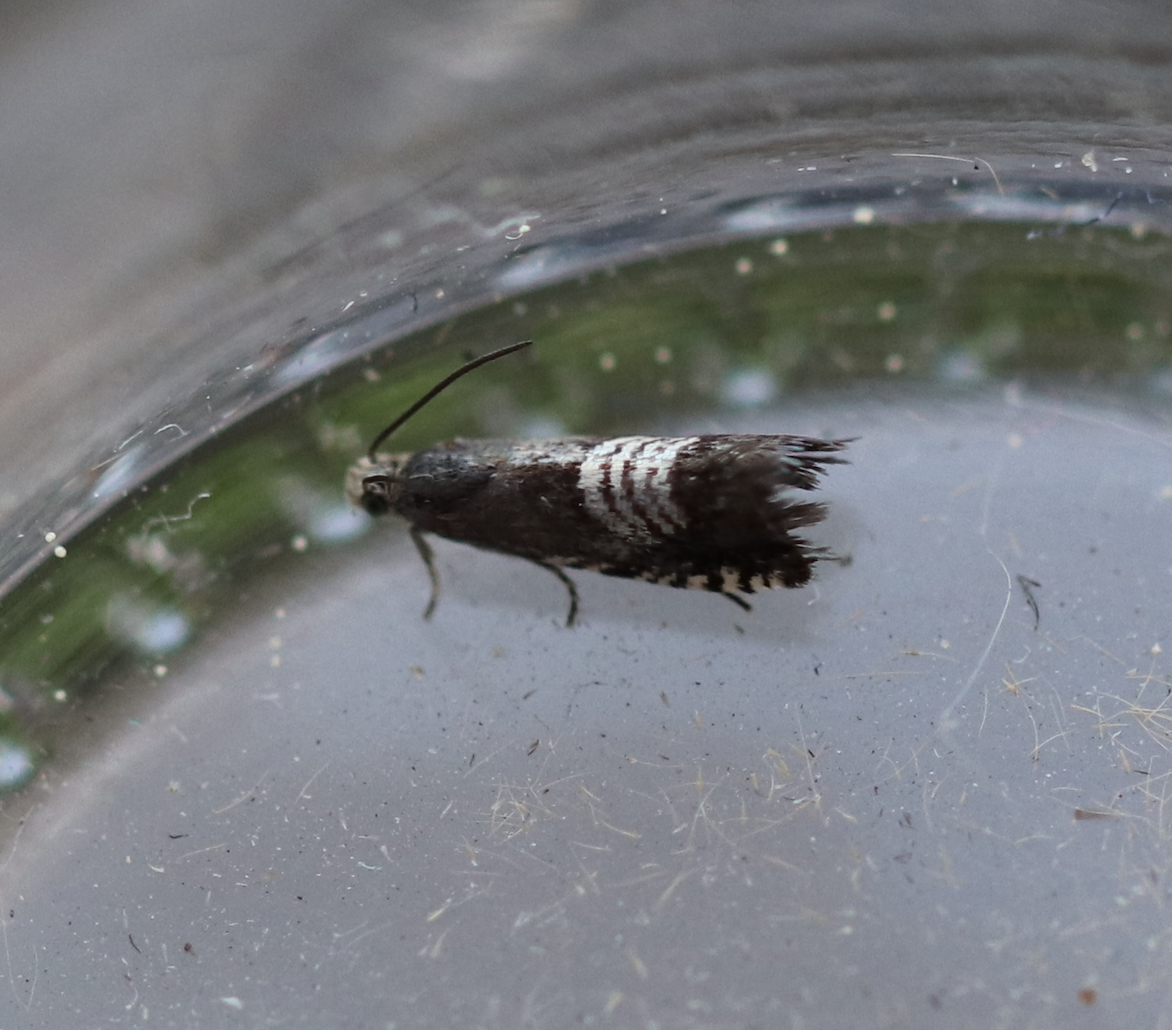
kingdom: Animalia
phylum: Arthropoda
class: Insecta
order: Lepidoptera
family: Tortricidae
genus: Grapholita
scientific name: Grapholita compositella
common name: Triple-stripe piercer
